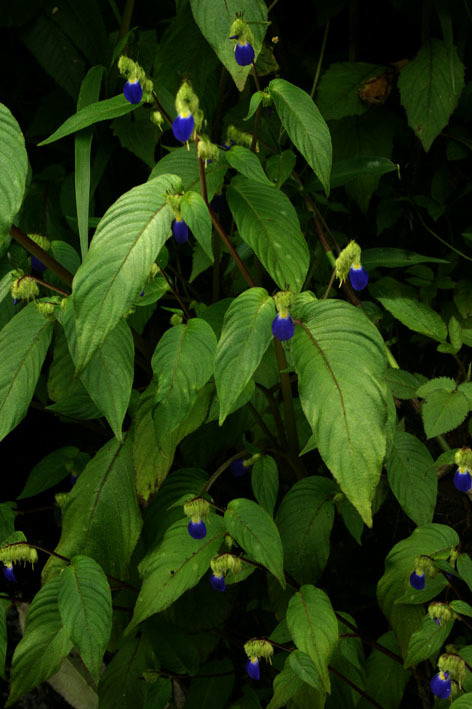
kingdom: Plantae
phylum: Tracheophyta
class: Magnoliopsida
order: Lamiales
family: Gesneriaceae
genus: Rhynchoglossum
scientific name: Rhynchoglossum notonianum
